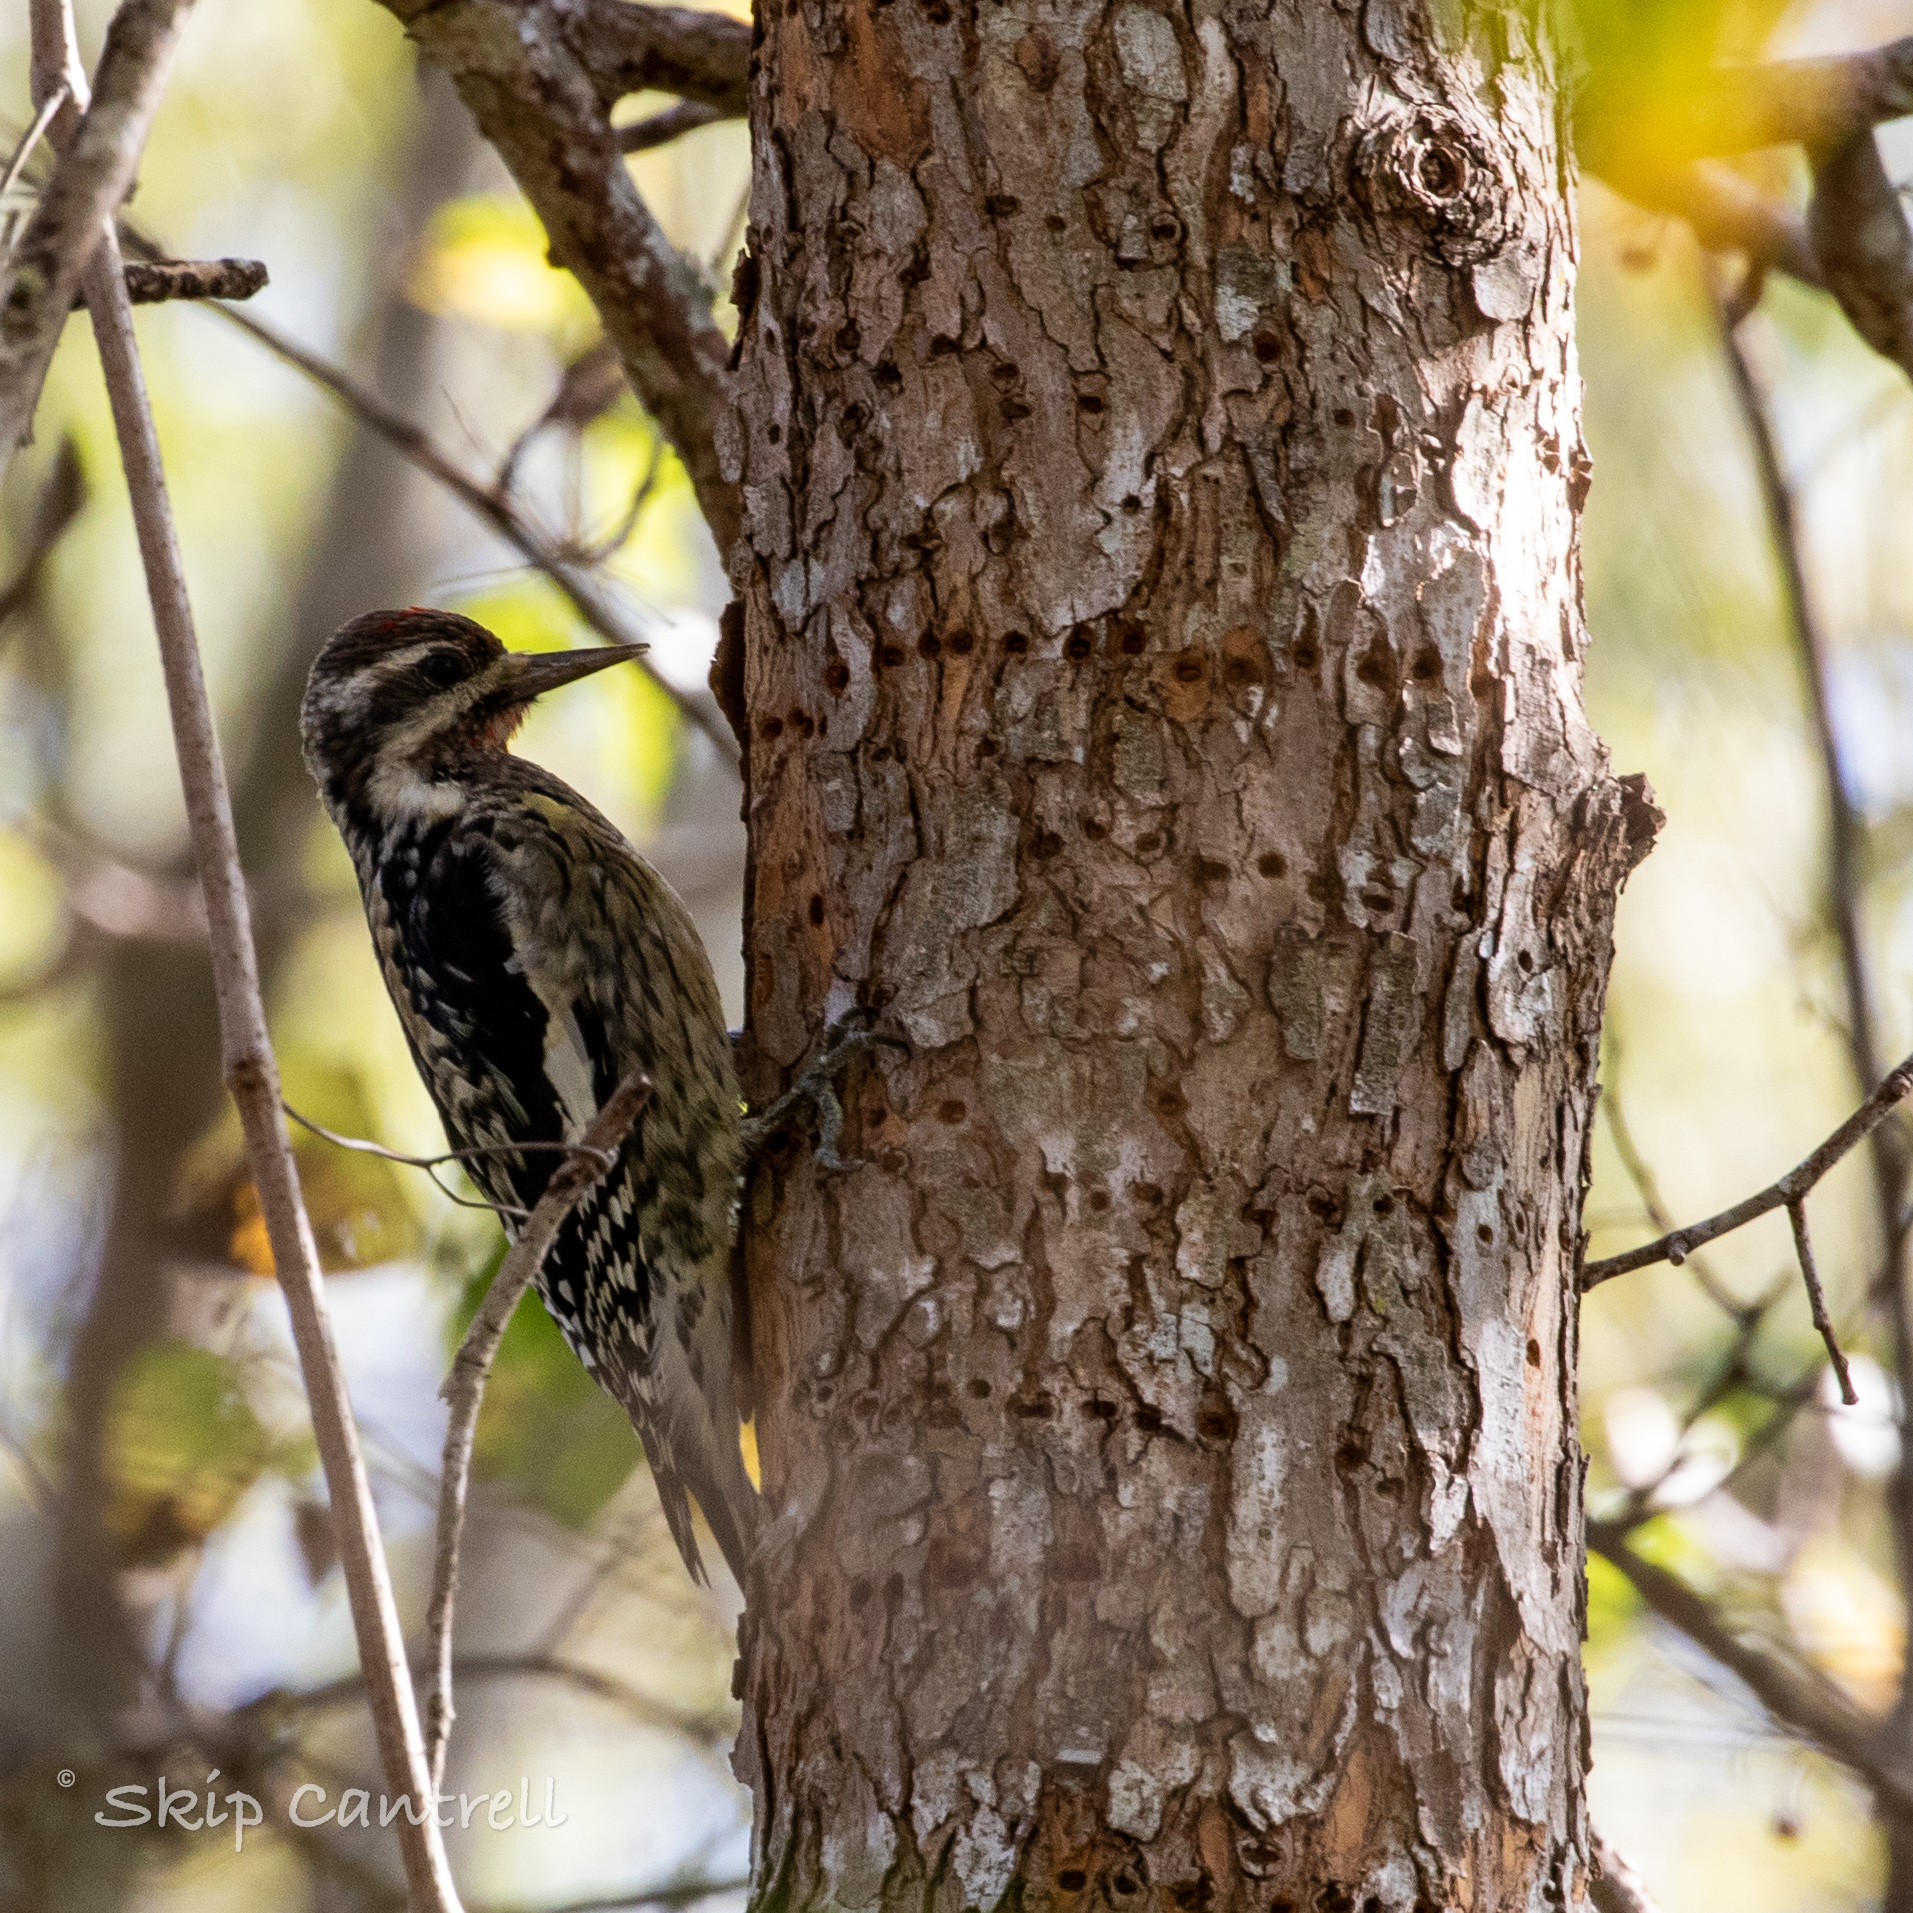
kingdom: Animalia
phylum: Chordata
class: Aves
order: Piciformes
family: Picidae
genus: Sphyrapicus
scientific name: Sphyrapicus varius
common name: Yellow-bellied sapsucker
